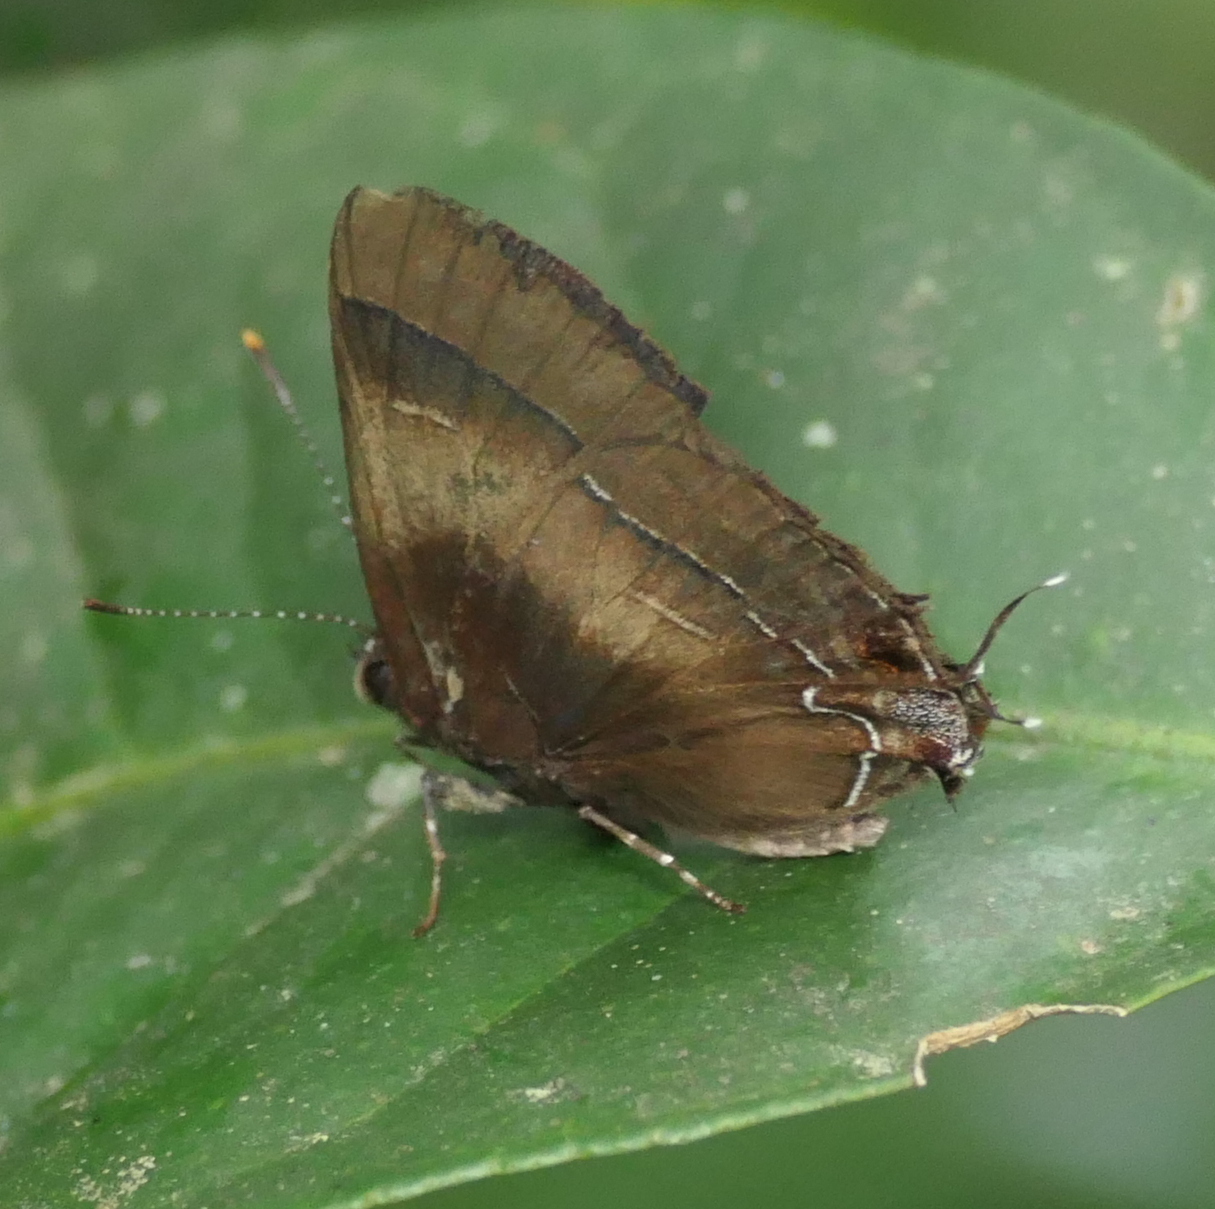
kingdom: Animalia
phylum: Arthropoda
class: Insecta
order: Lepidoptera
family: Lycaenidae
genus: Thecla
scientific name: Thecla orcidia
